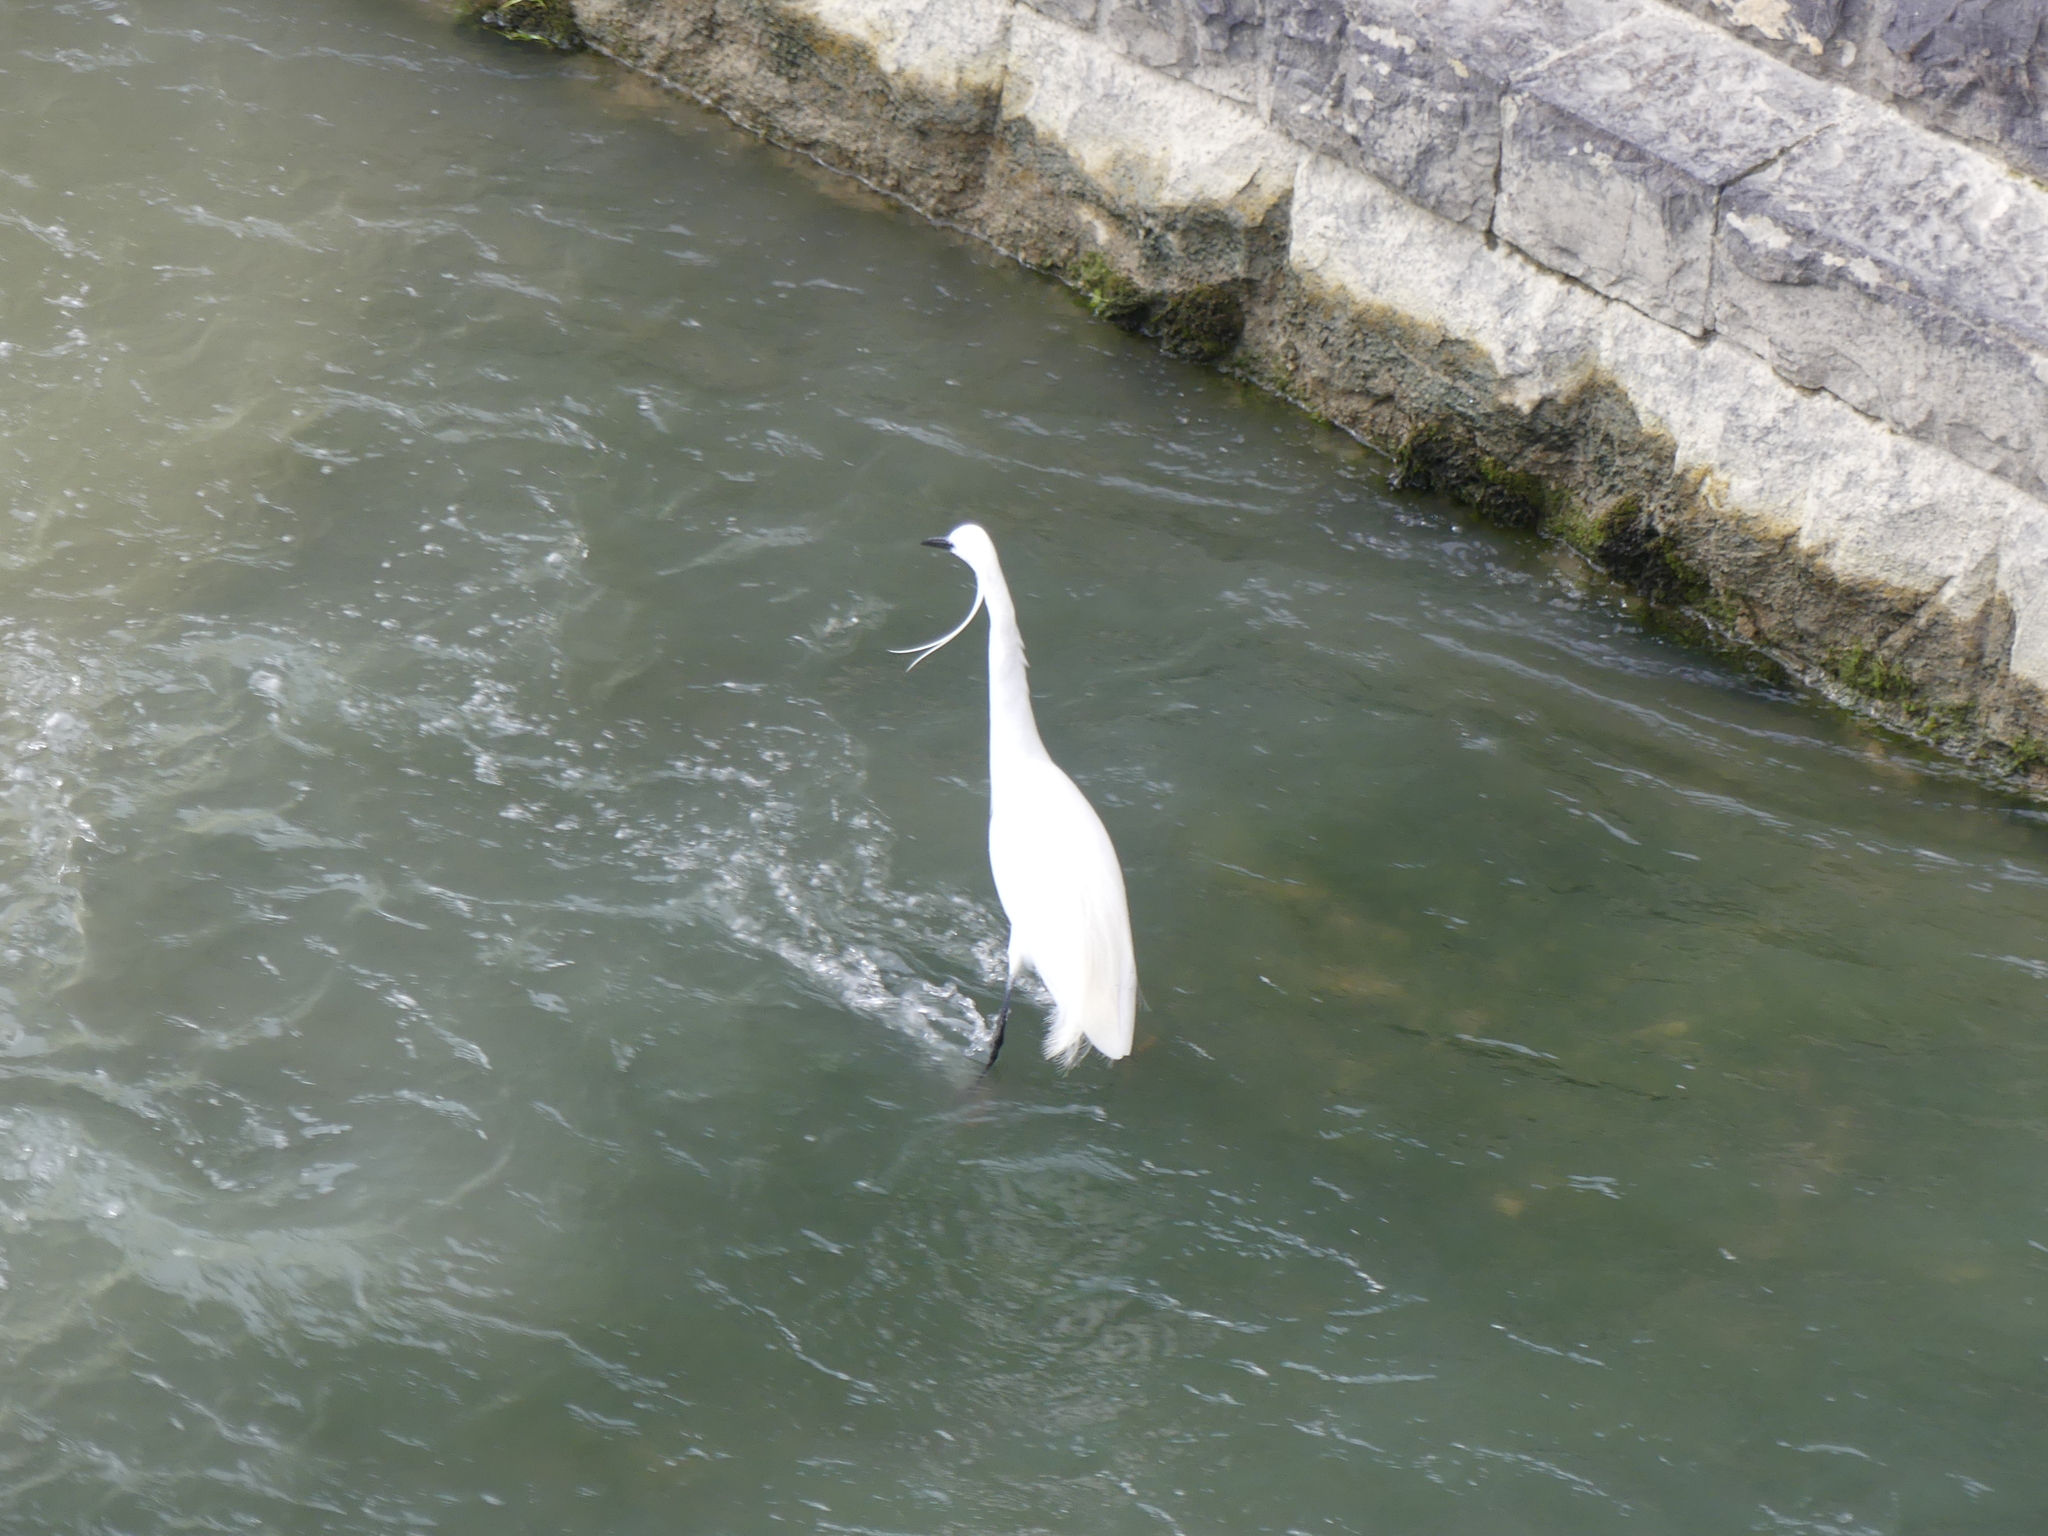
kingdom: Animalia
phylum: Chordata
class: Aves
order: Pelecaniformes
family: Ardeidae
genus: Egretta
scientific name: Egretta garzetta
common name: Little egret
